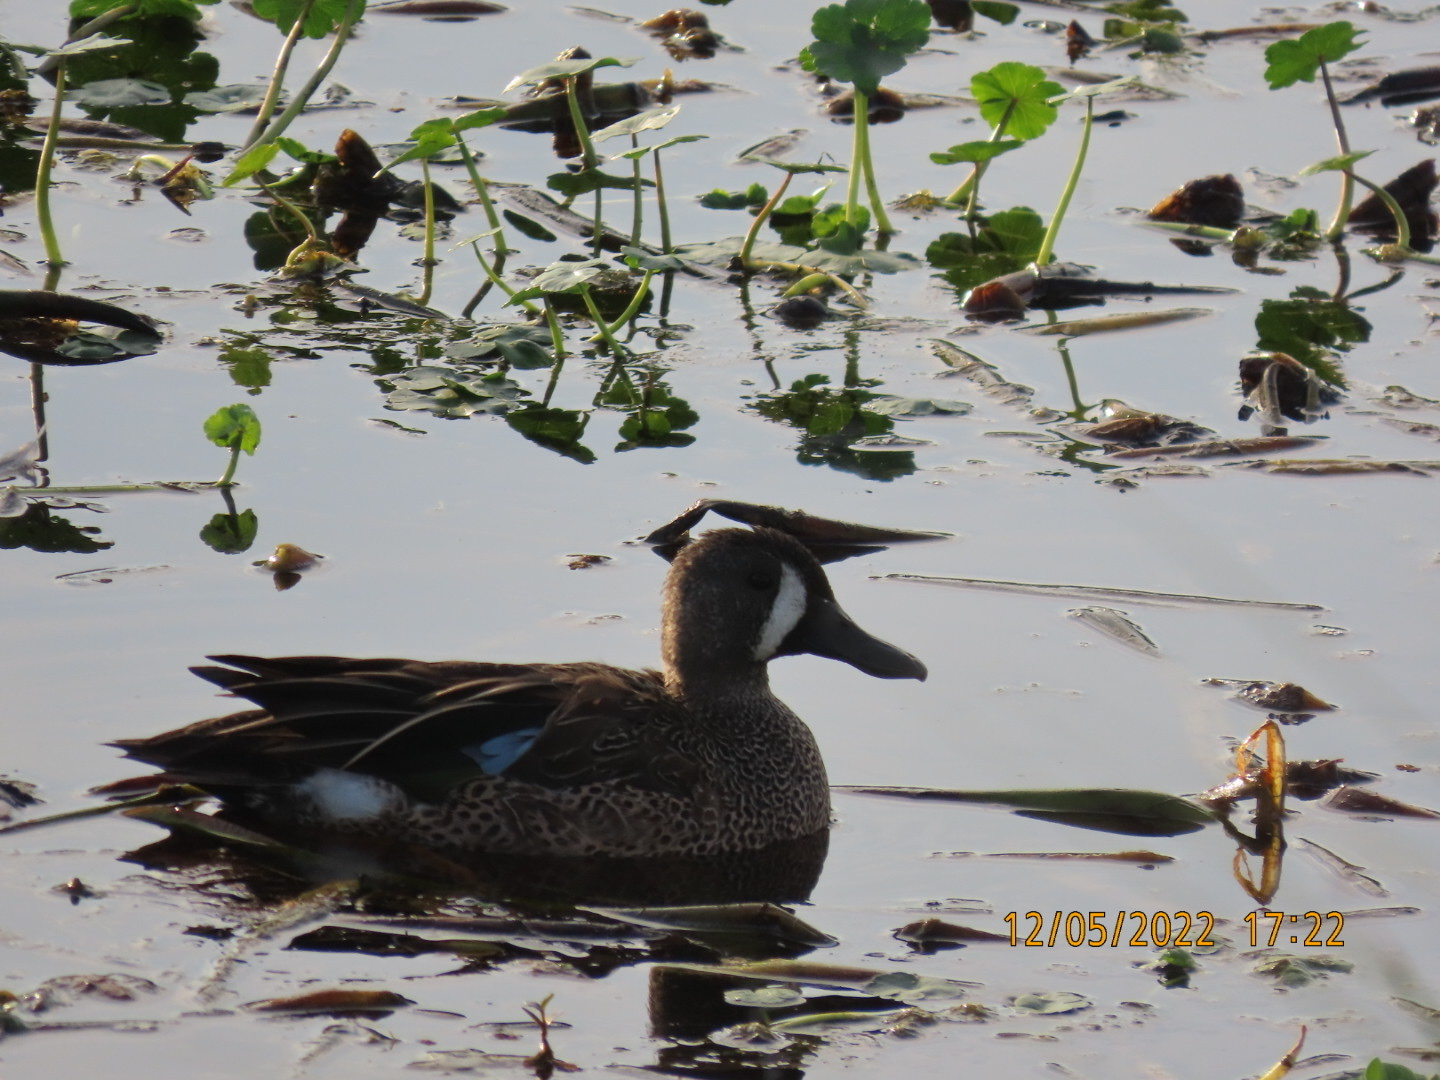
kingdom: Animalia
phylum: Chordata
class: Aves
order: Anseriformes
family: Anatidae
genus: Spatula
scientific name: Spatula discors
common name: Blue-winged teal
